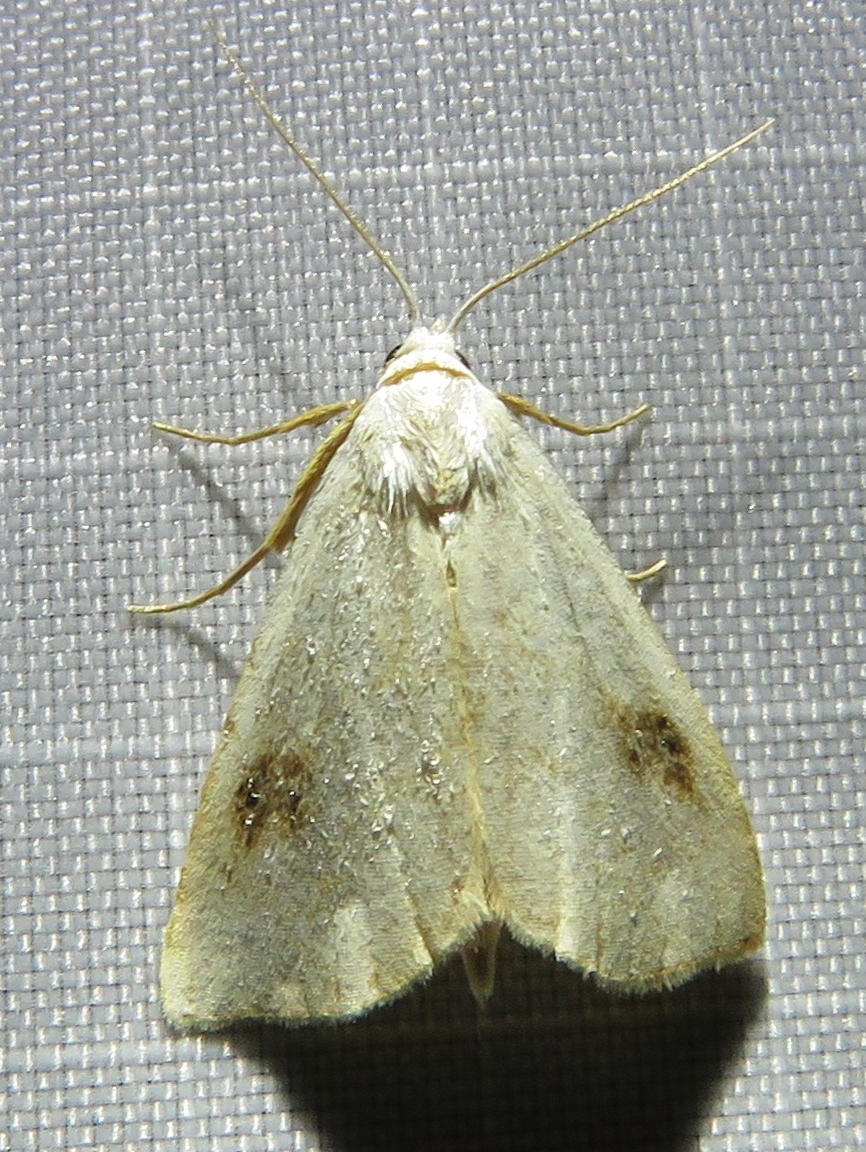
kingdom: Animalia
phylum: Arthropoda
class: Insecta
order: Lepidoptera
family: Erebidae
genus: Rivula
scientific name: Rivula sericealis
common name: Straw dot
